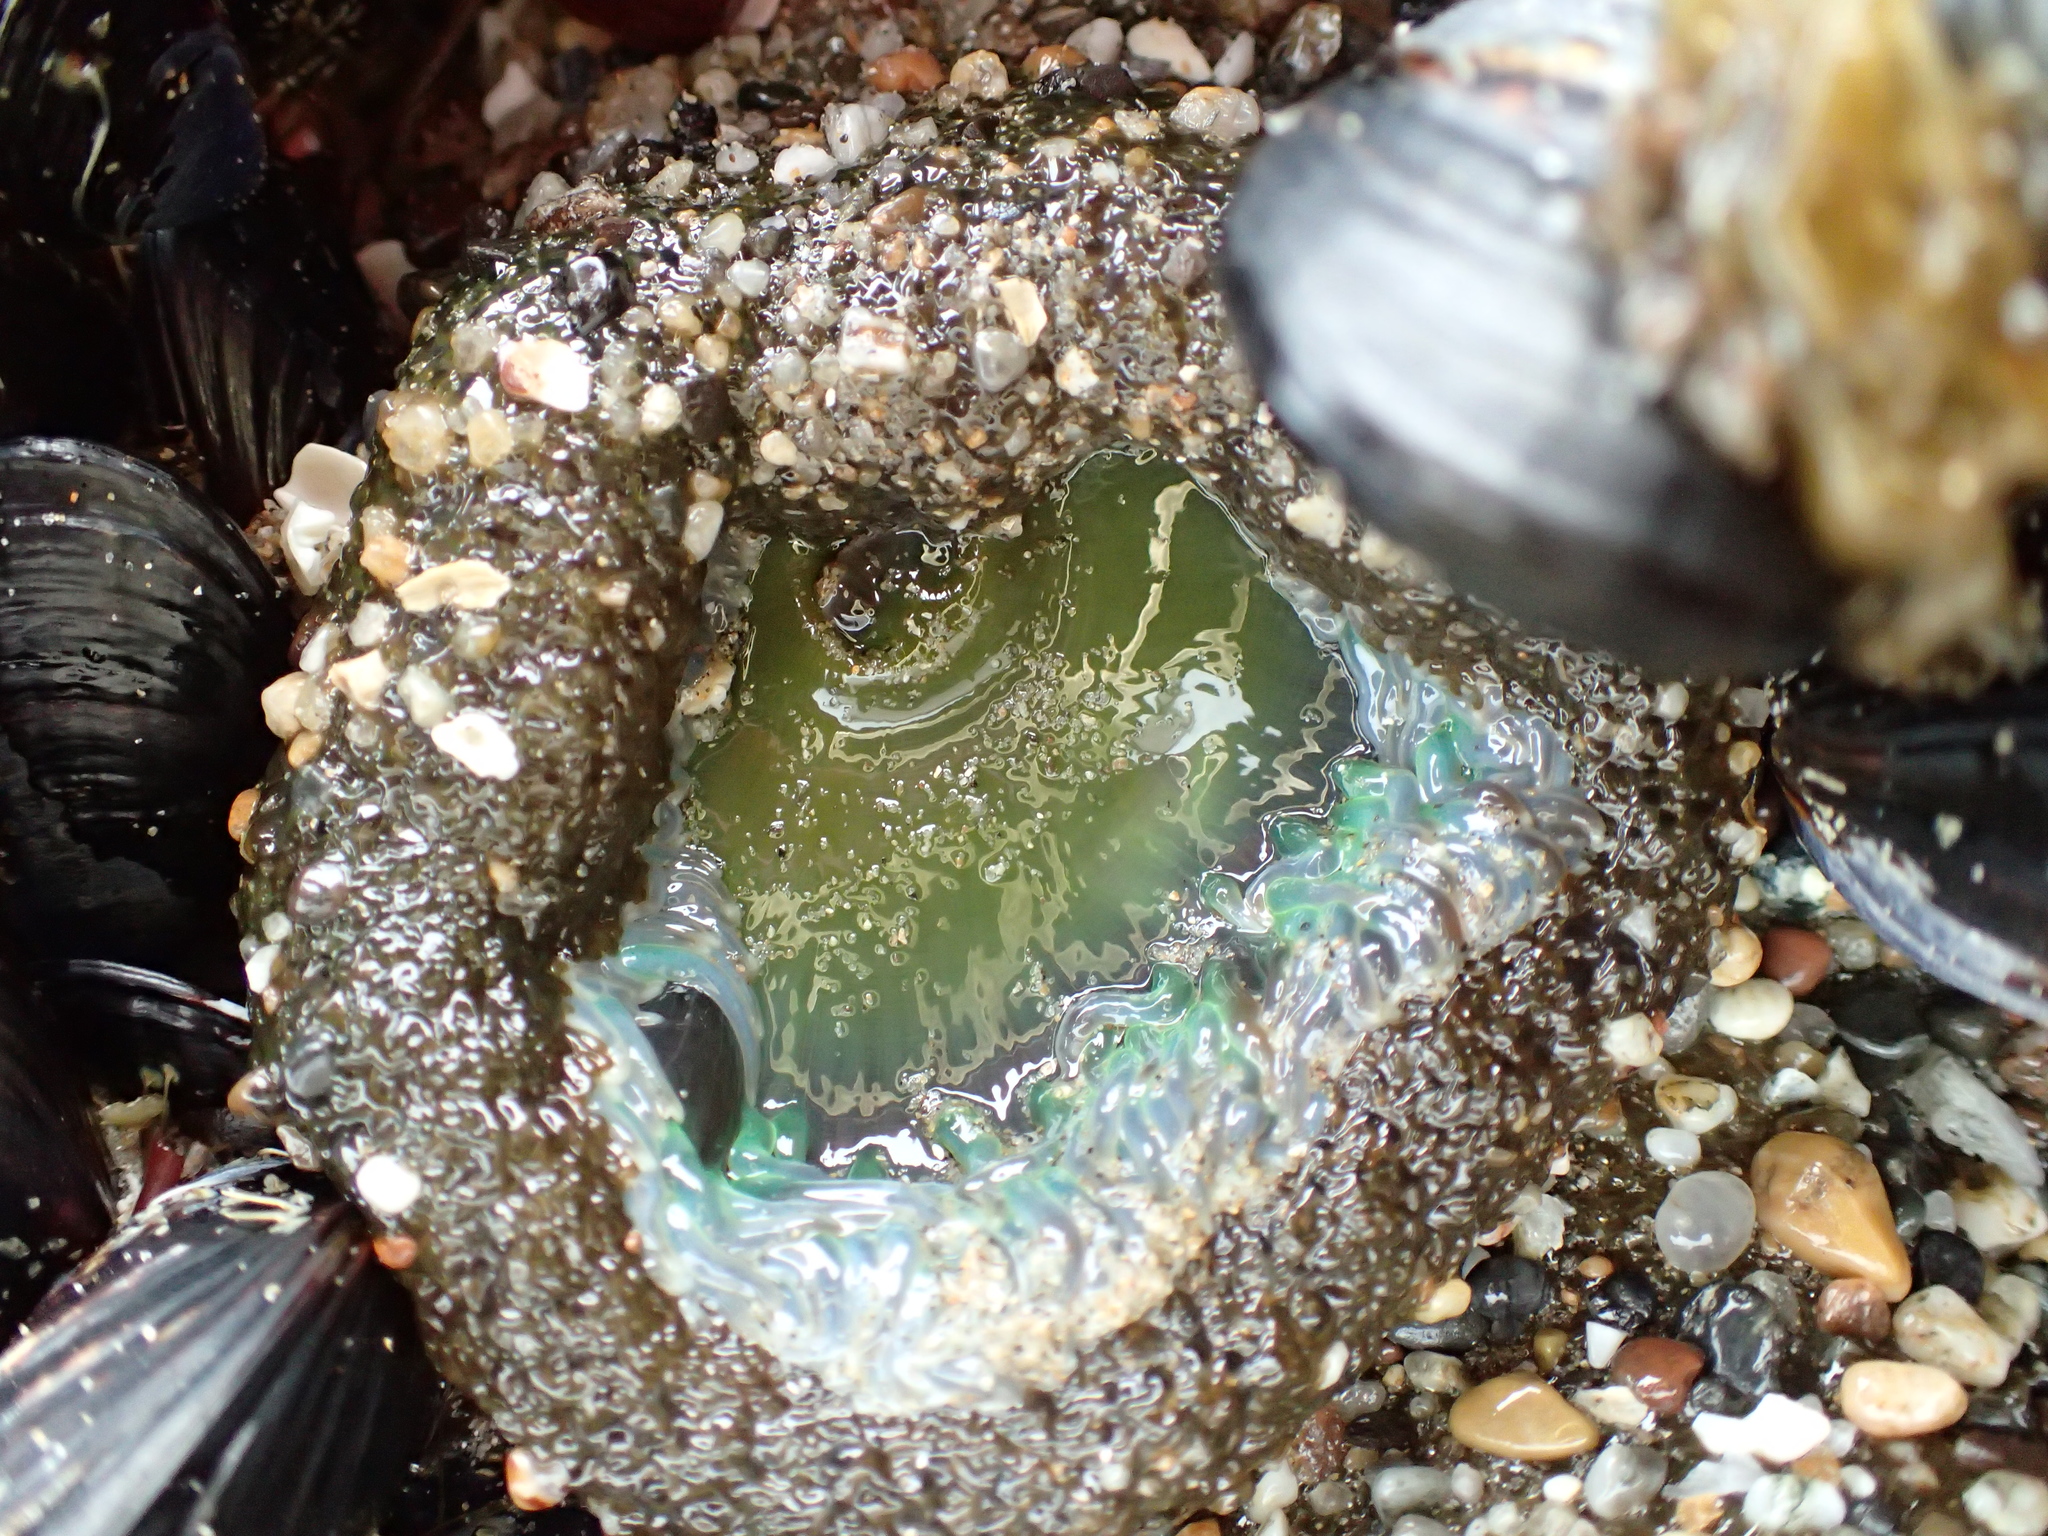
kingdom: Animalia
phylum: Cnidaria
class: Anthozoa
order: Actiniaria
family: Actiniidae
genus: Anthopleura
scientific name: Anthopleura xanthogrammica
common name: Giant green anemone
